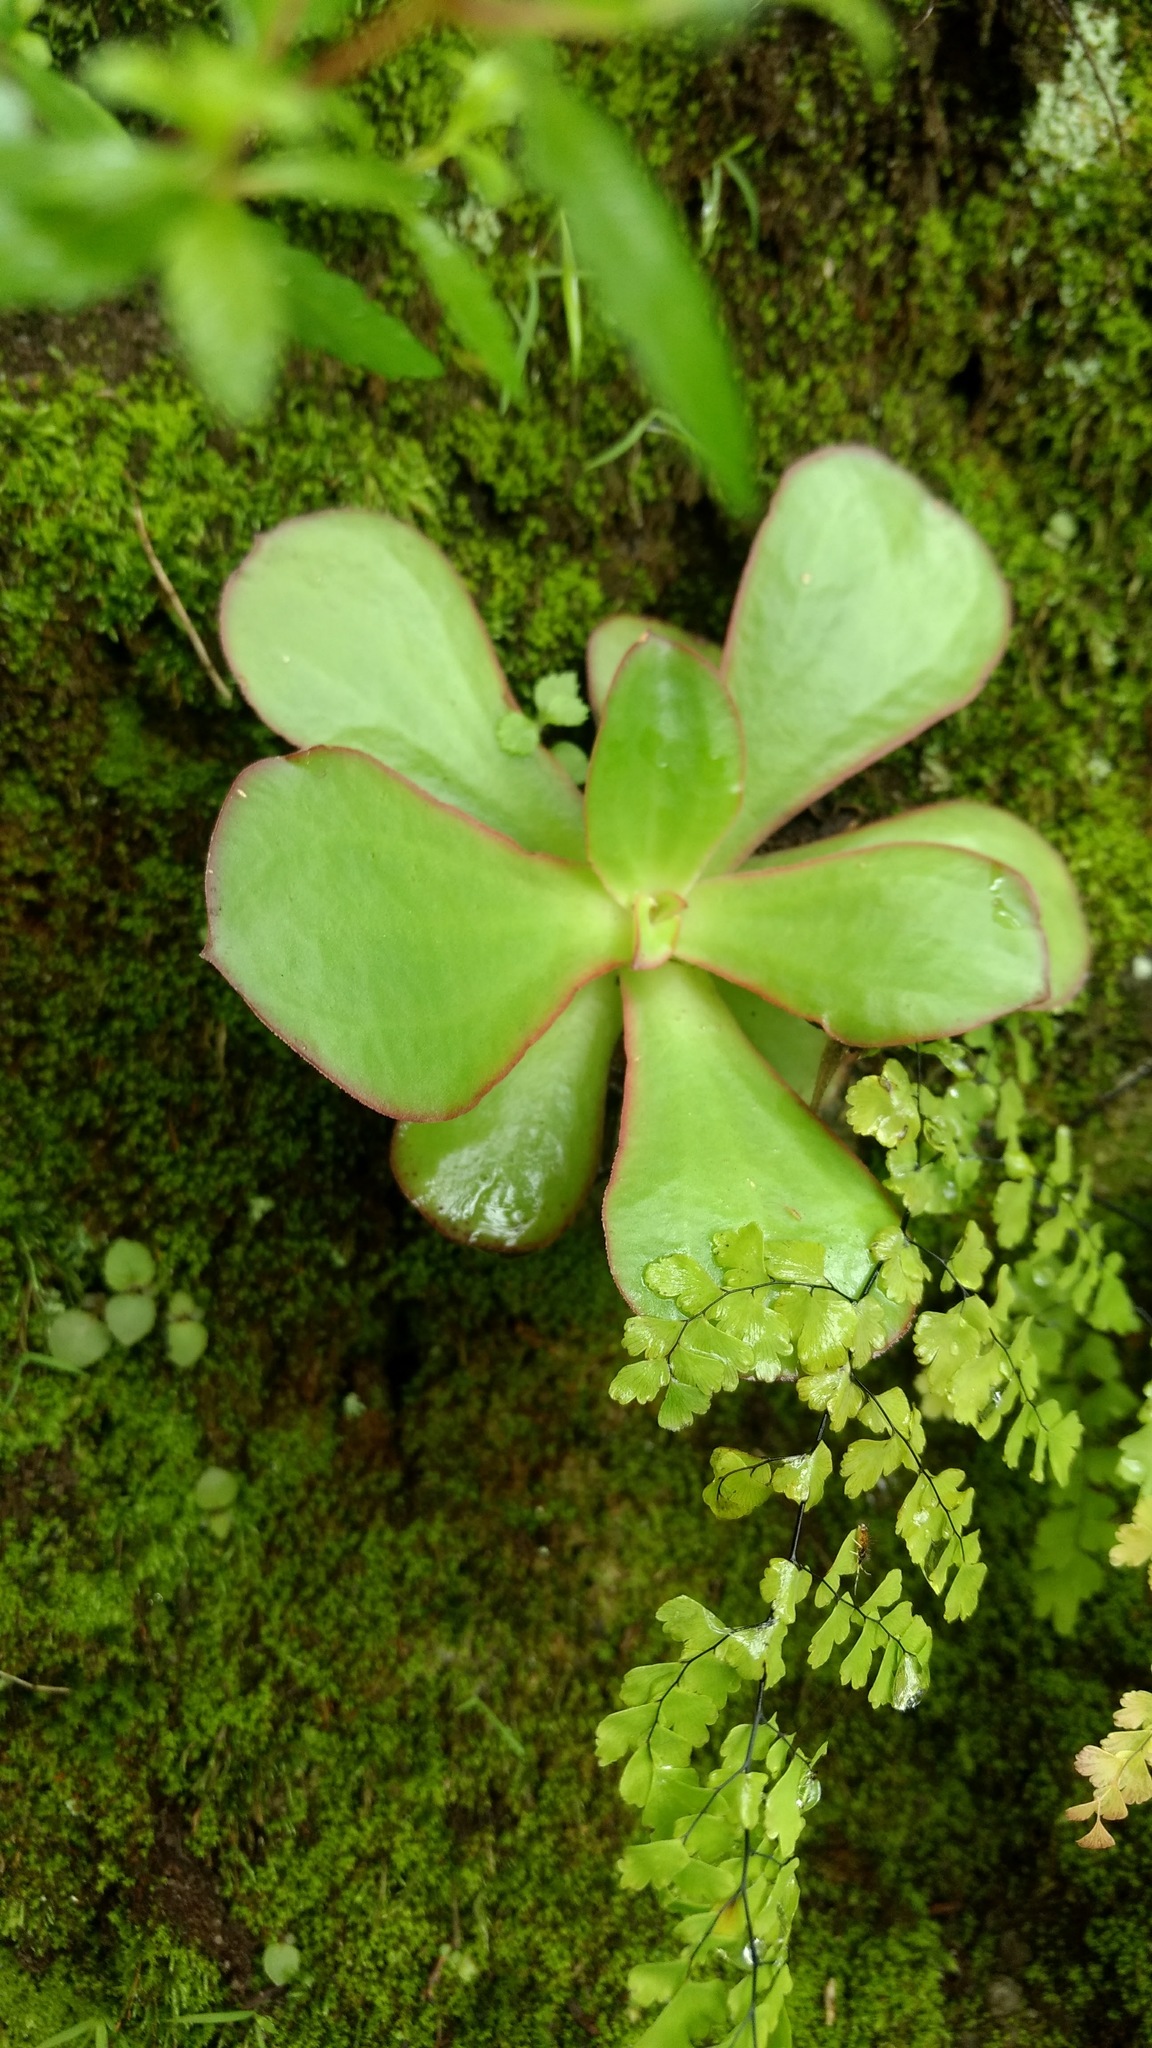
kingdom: Plantae
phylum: Tracheophyta
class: Magnoliopsida
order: Saxifragales
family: Crassulaceae
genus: Echeveria
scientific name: Echeveria fulgens
